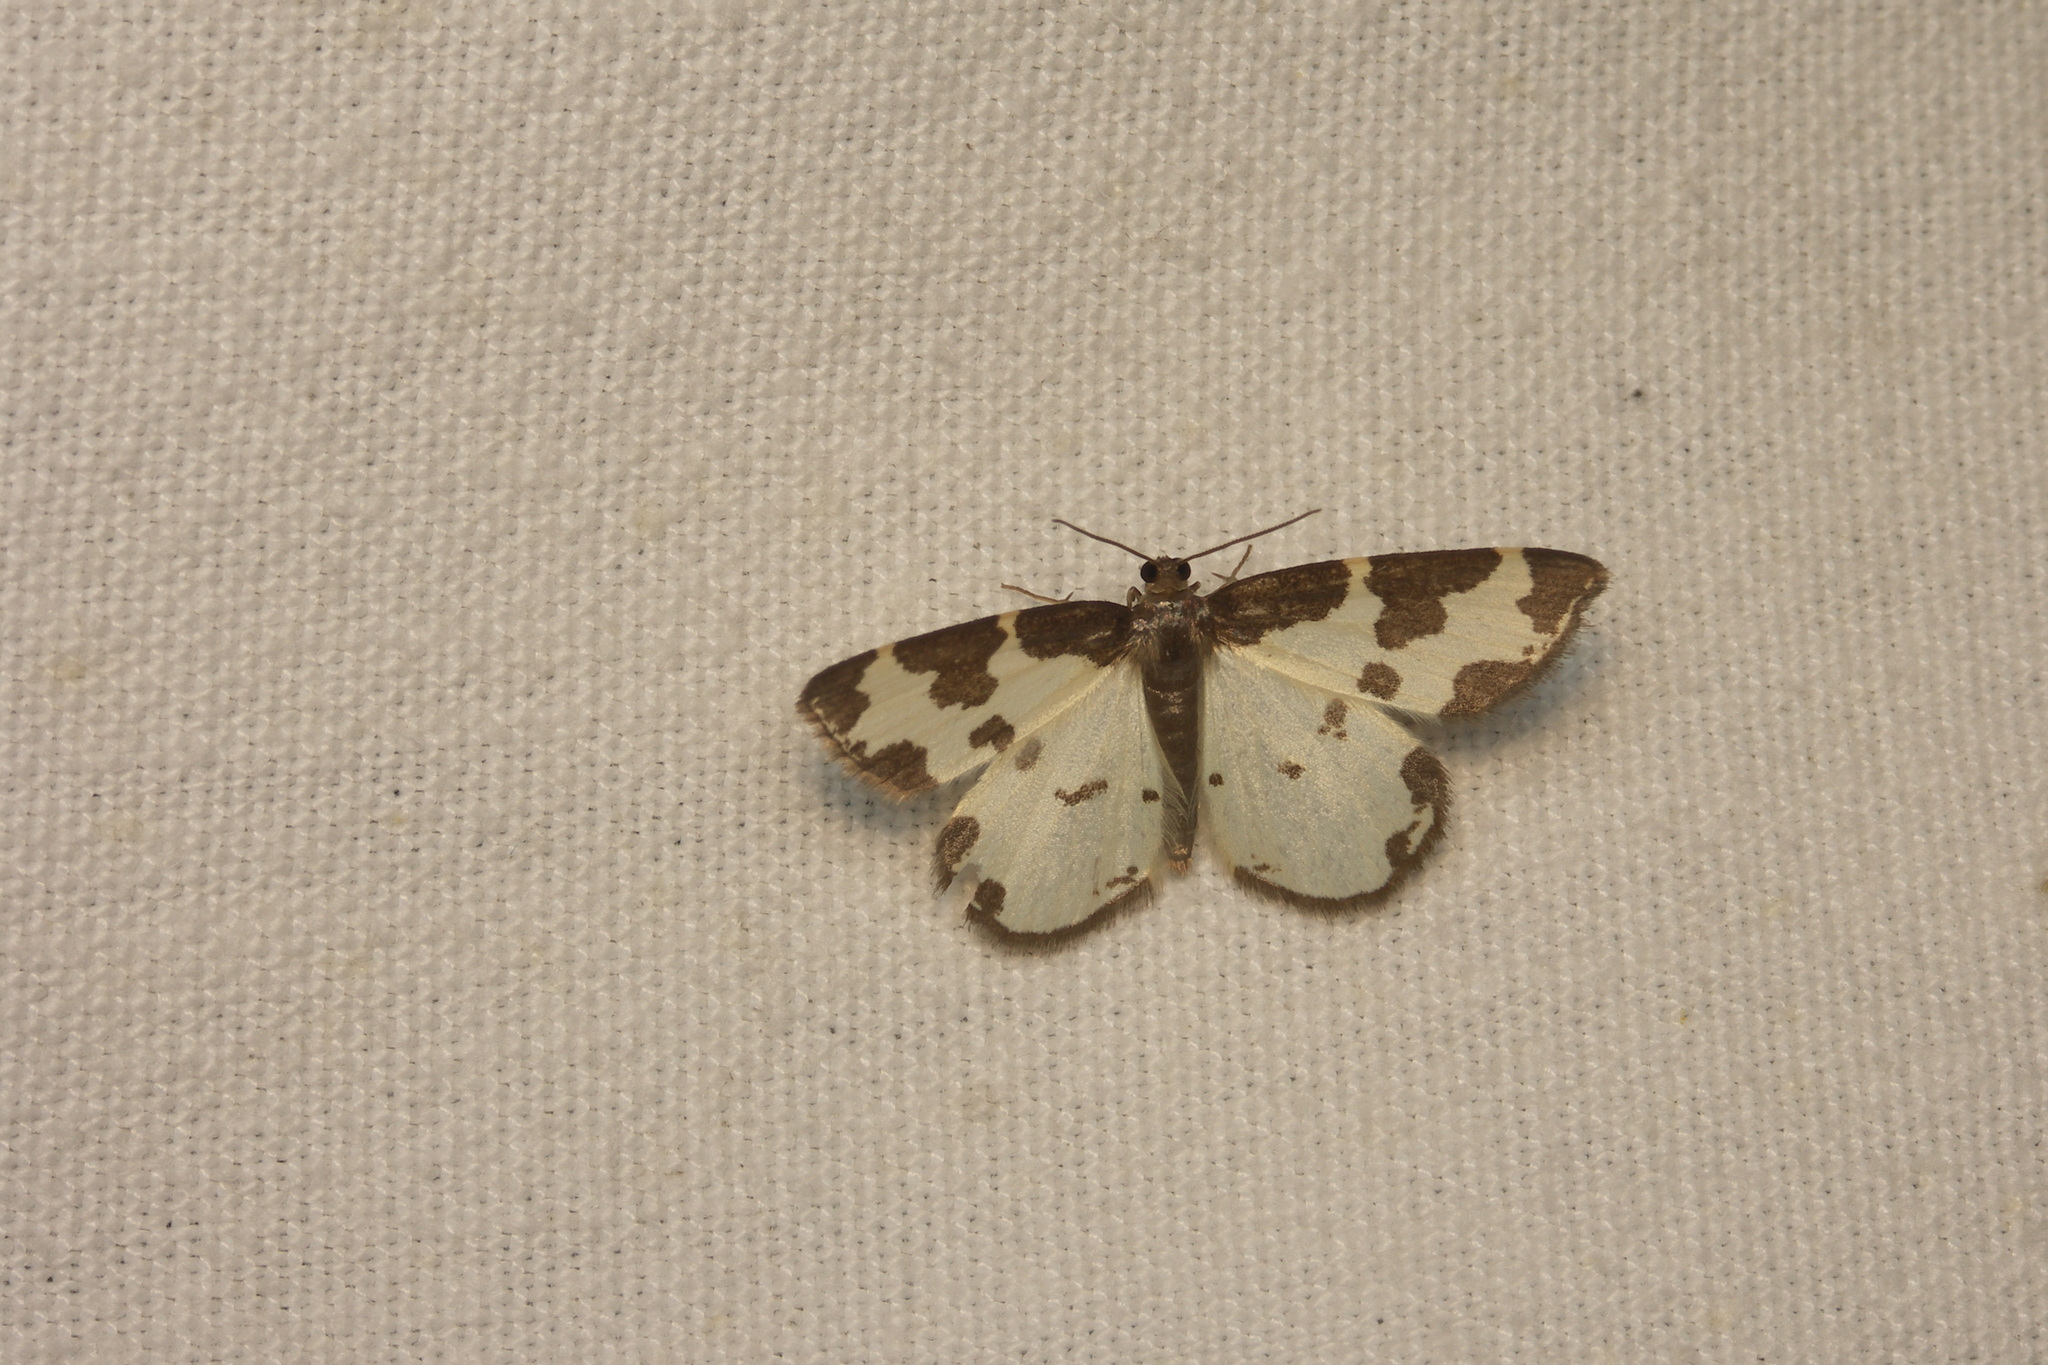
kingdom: Animalia
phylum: Arthropoda
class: Insecta
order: Lepidoptera
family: Geometridae
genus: Lomaspilis
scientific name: Lomaspilis marginata
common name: Clouded border
